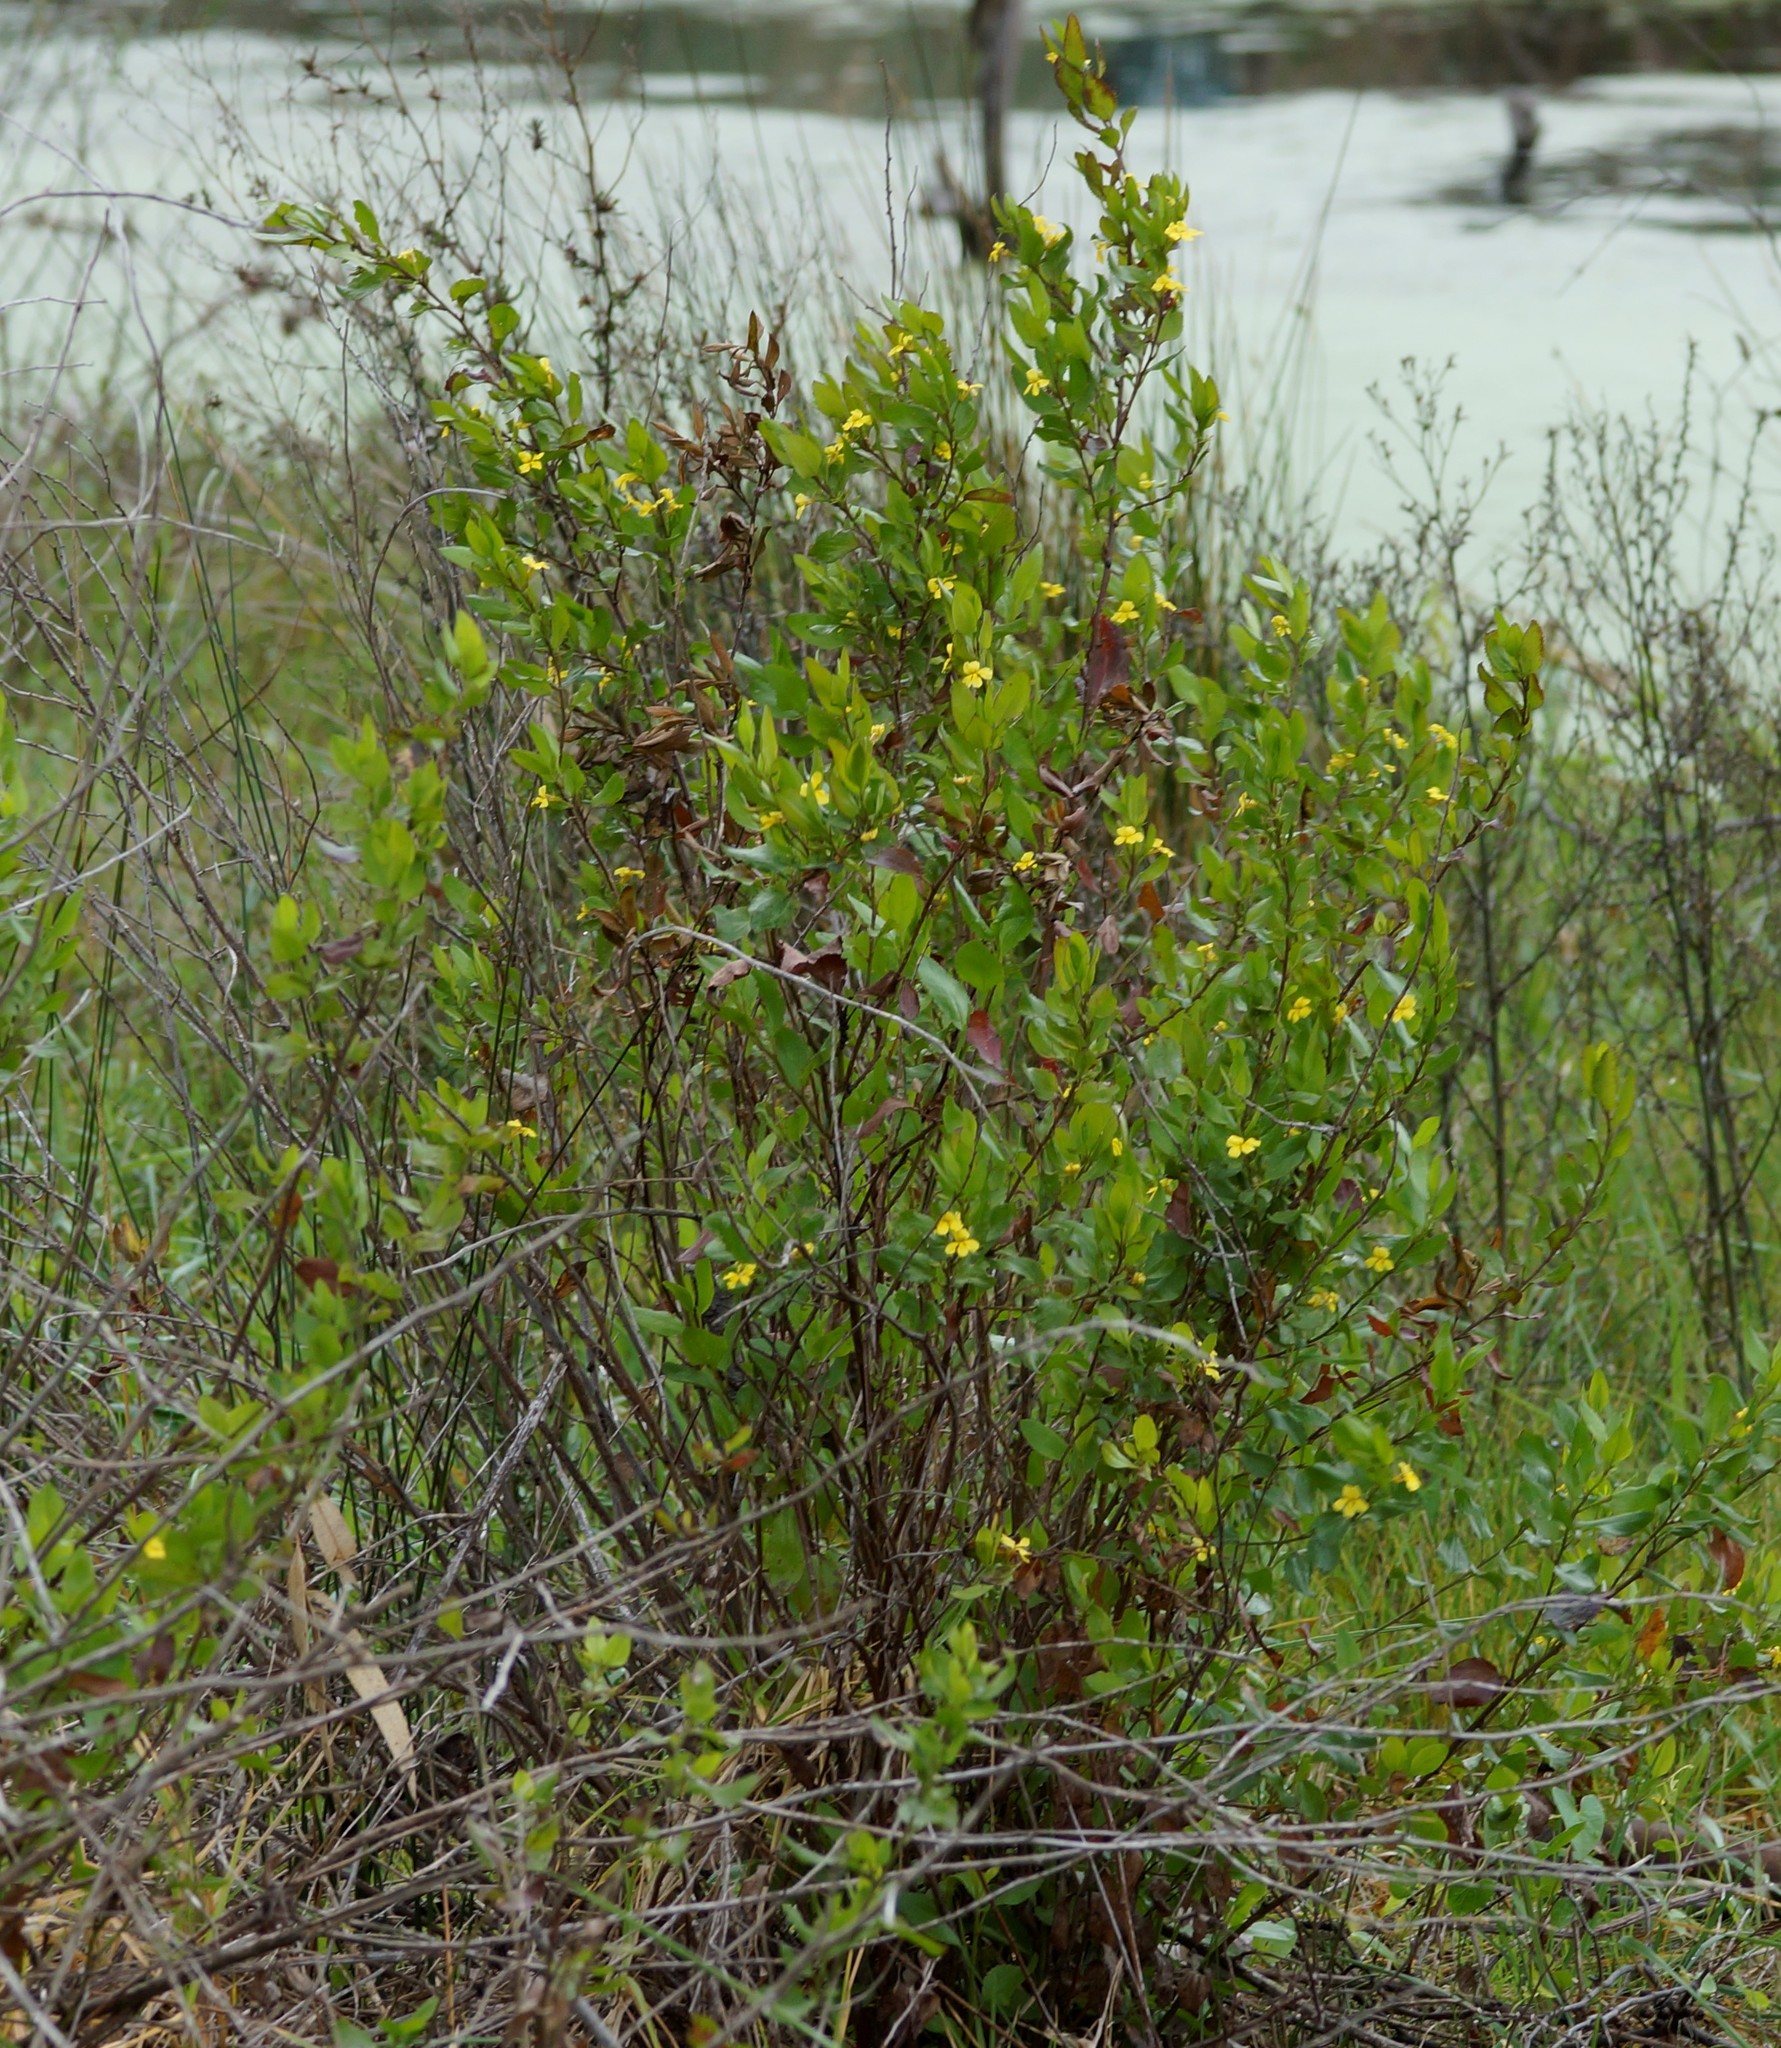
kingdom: Plantae
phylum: Tracheophyta
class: Magnoliopsida
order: Asterales
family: Goodeniaceae
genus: Goodenia
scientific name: Goodenia ovata
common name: Hop goodenia
